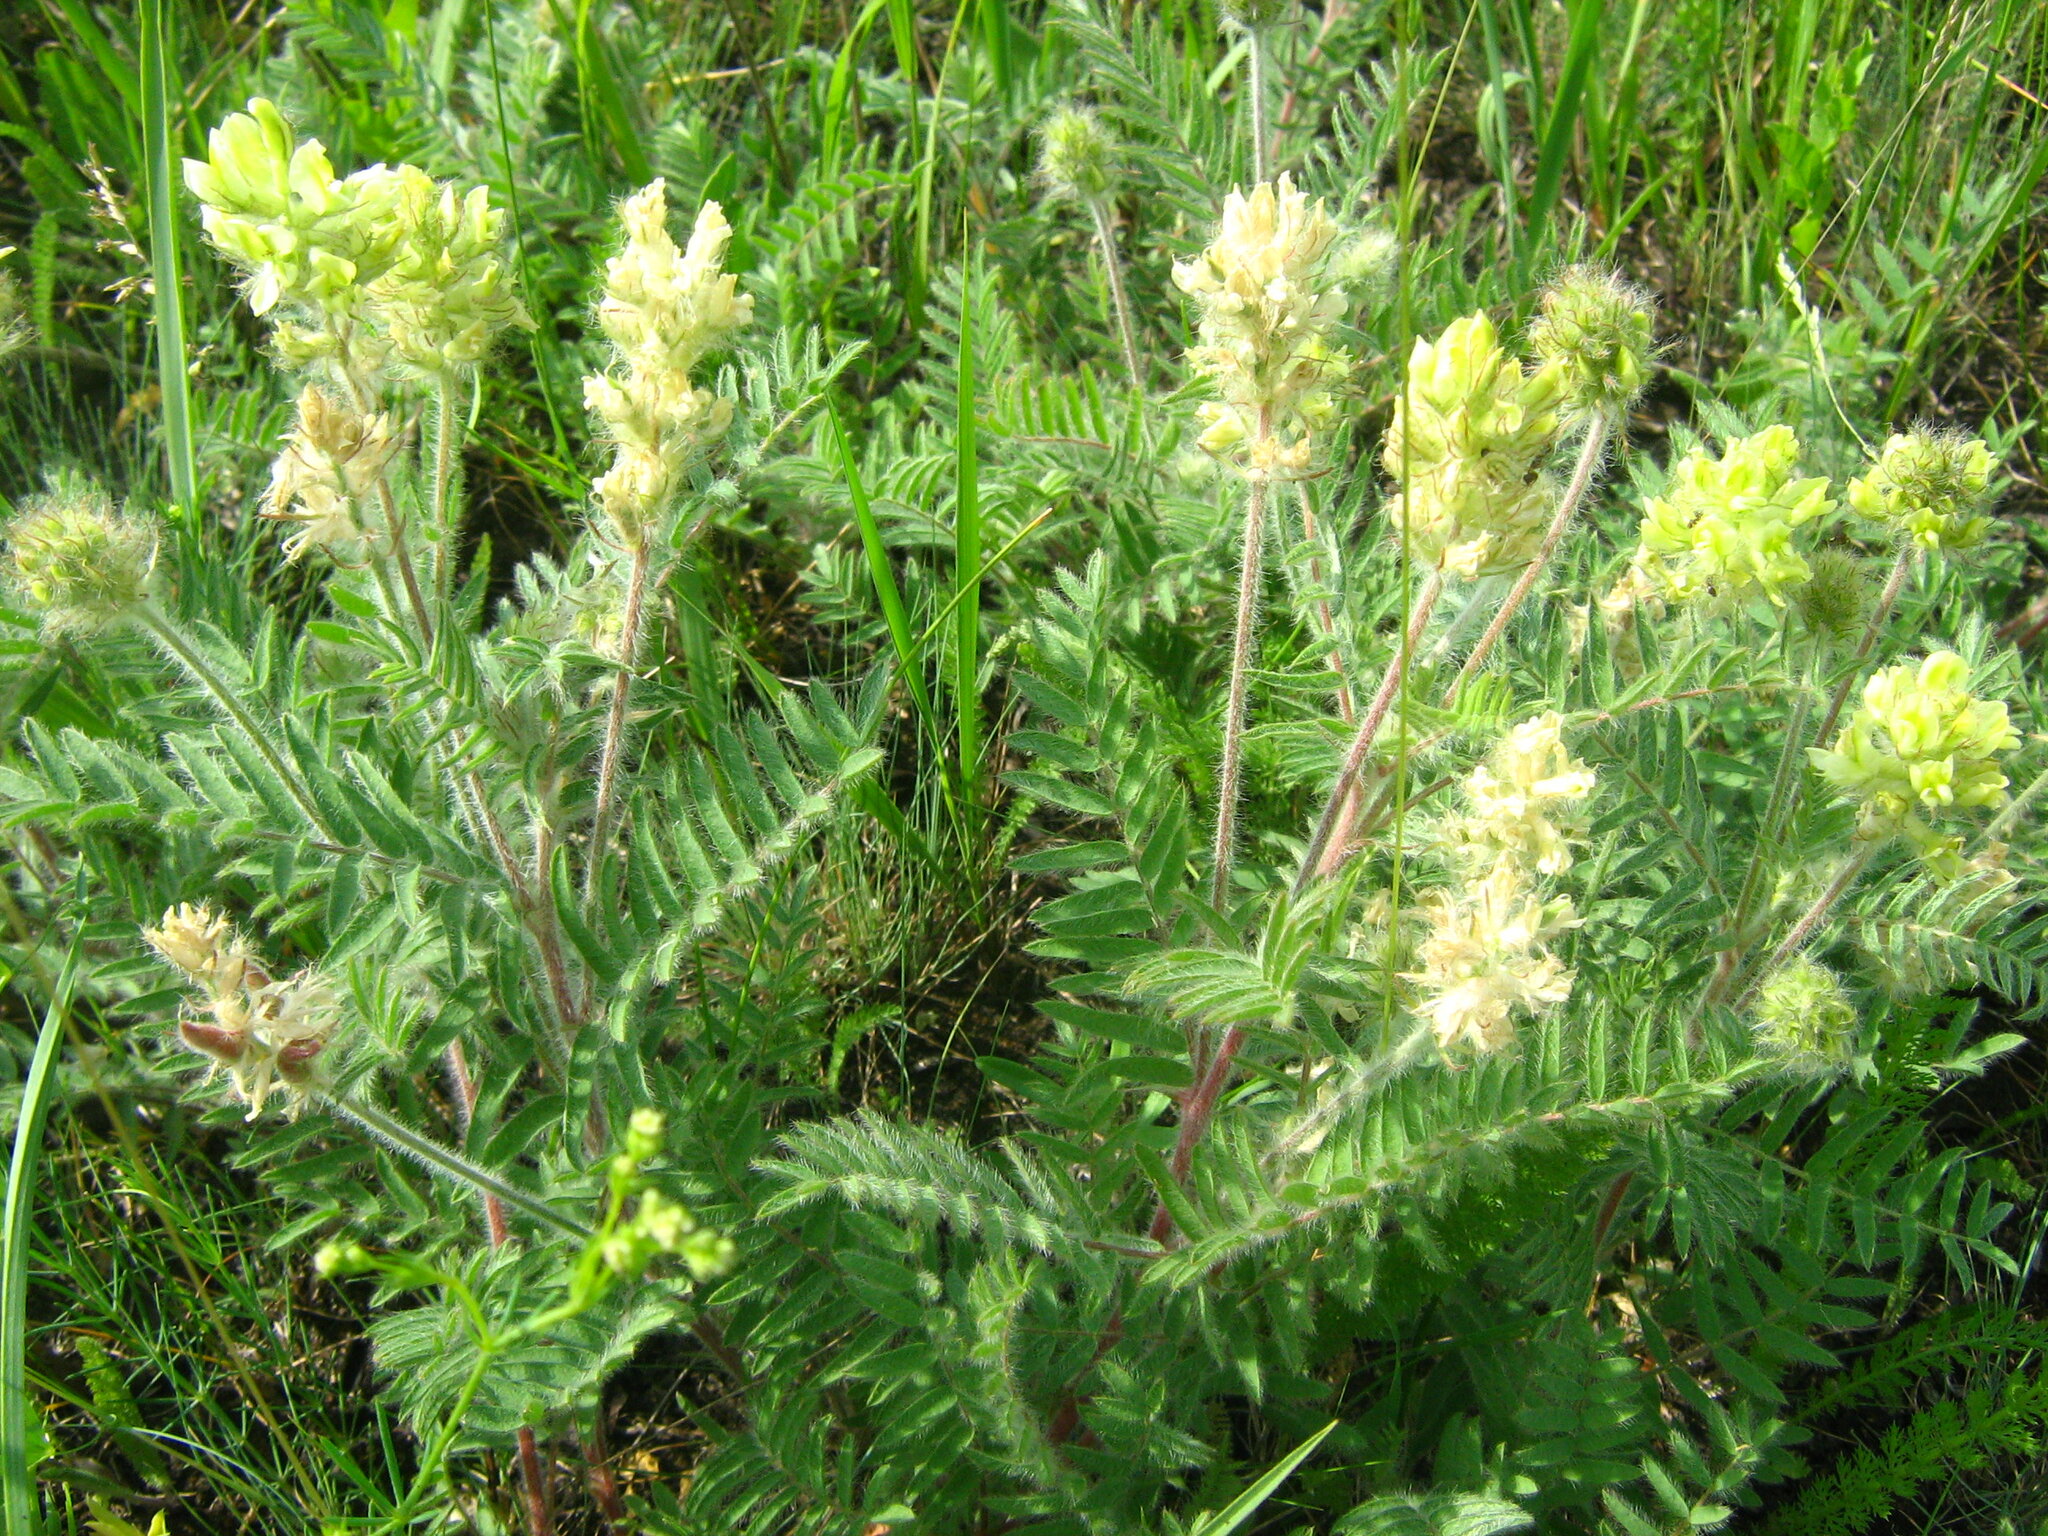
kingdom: Plantae
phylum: Tracheophyta
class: Magnoliopsida
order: Fabales
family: Fabaceae
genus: Oxytropis
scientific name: Oxytropis pilosa
